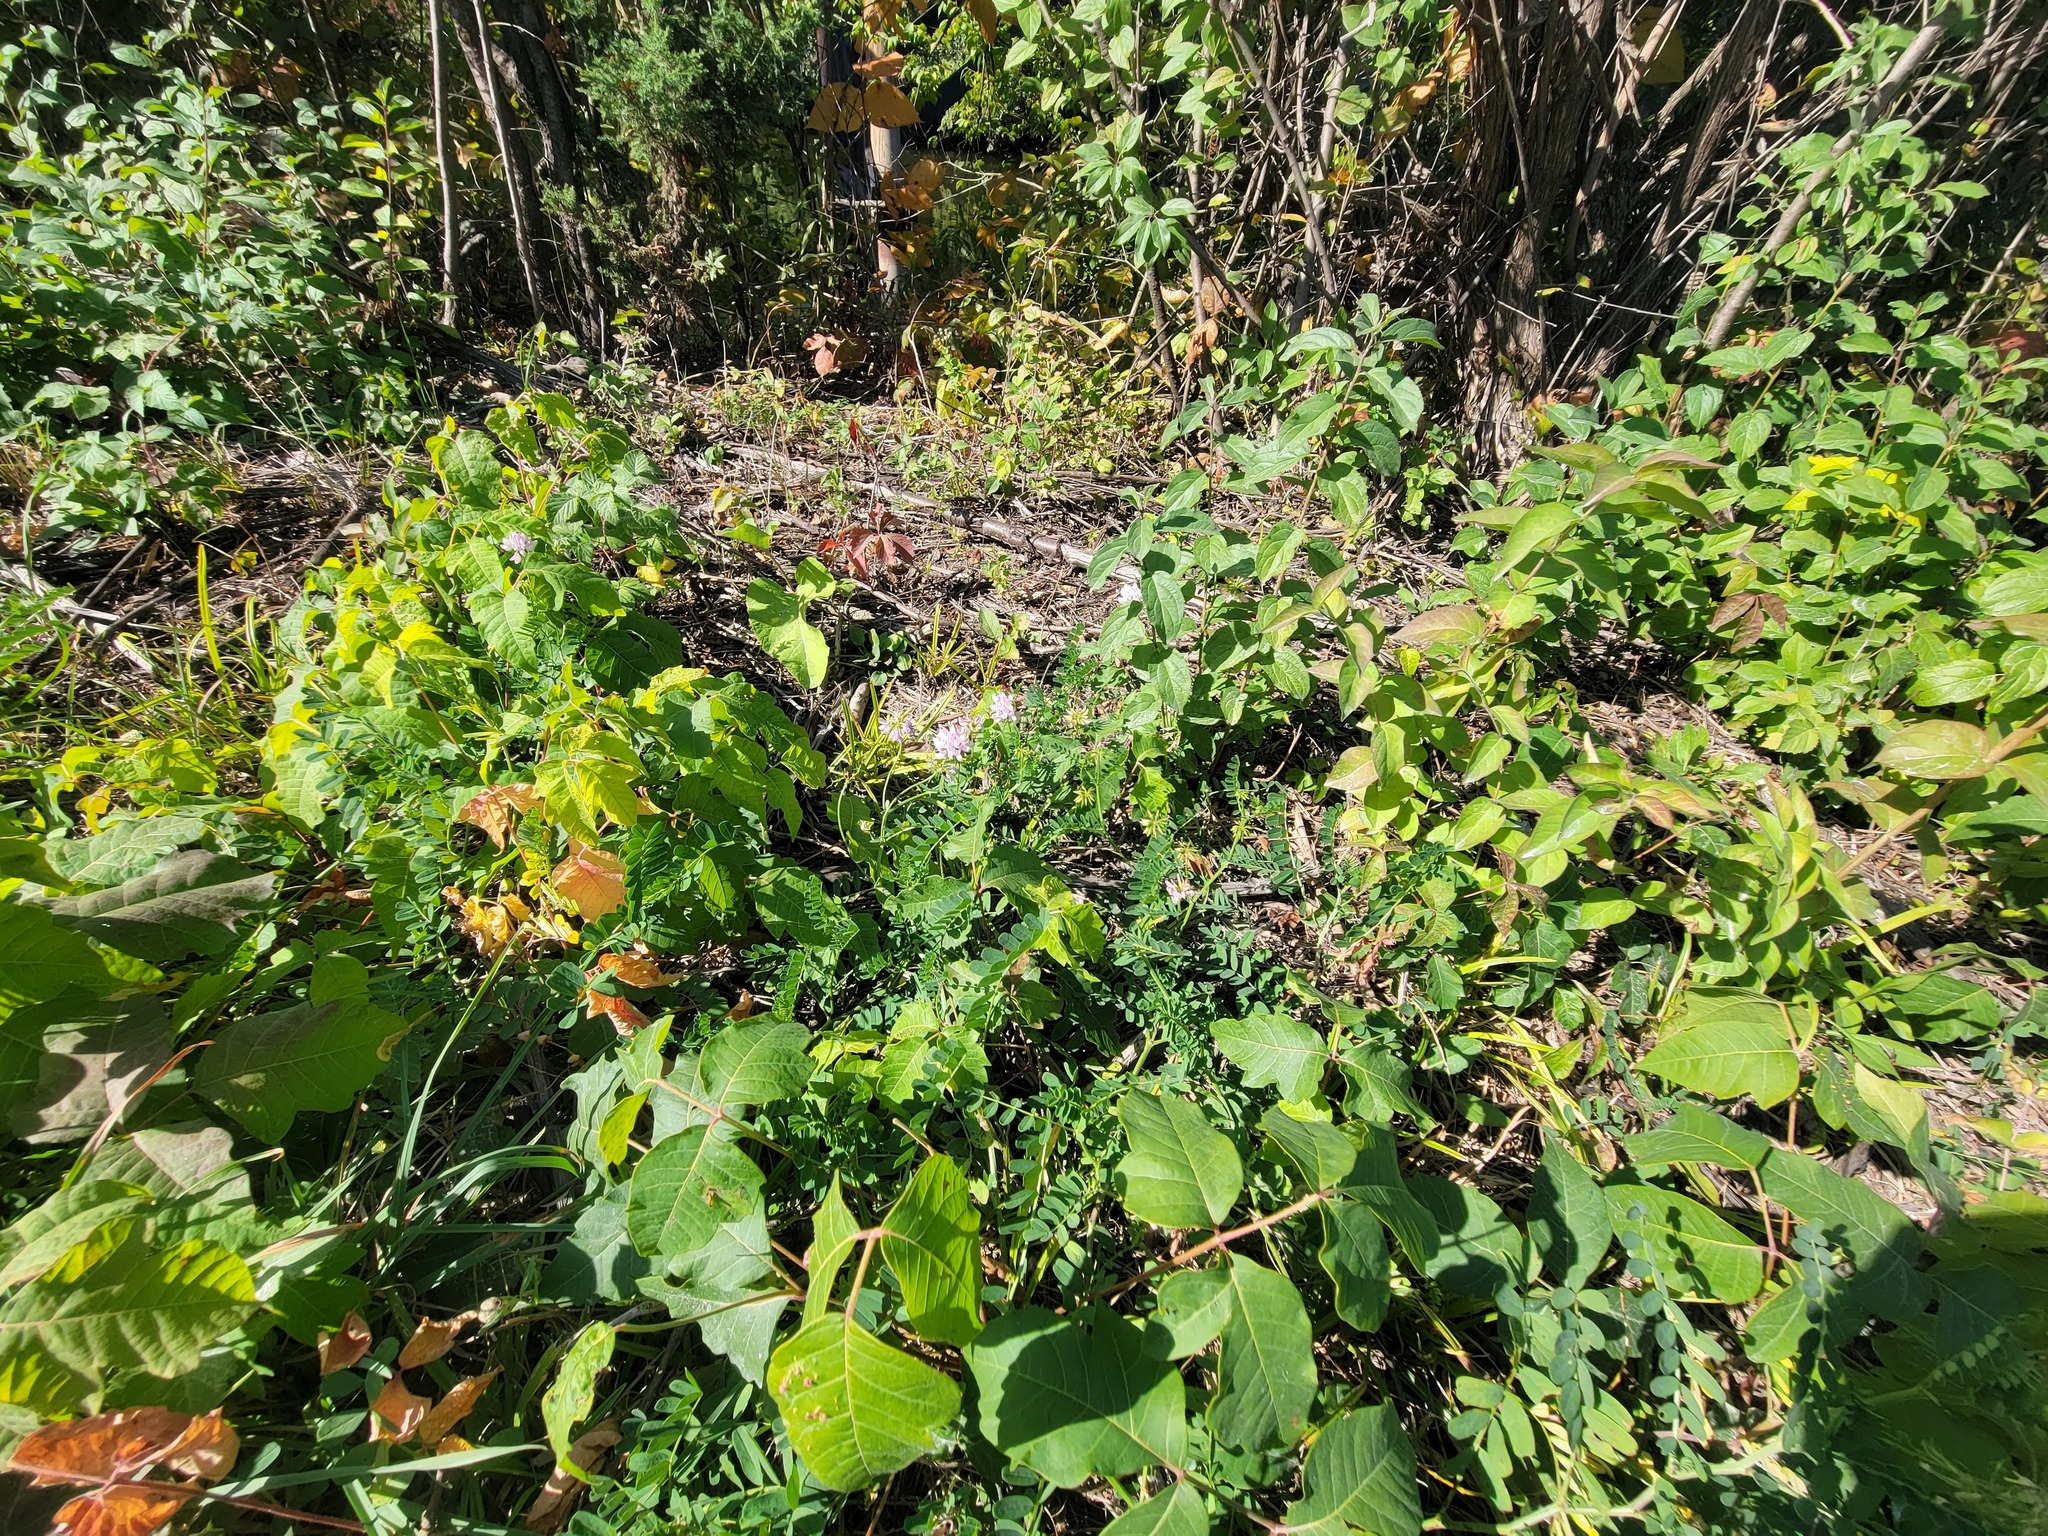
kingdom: Plantae
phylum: Tracheophyta
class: Magnoliopsida
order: Fabales
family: Fabaceae
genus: Coronilla
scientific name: Coronilla varia
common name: Crownvetch
